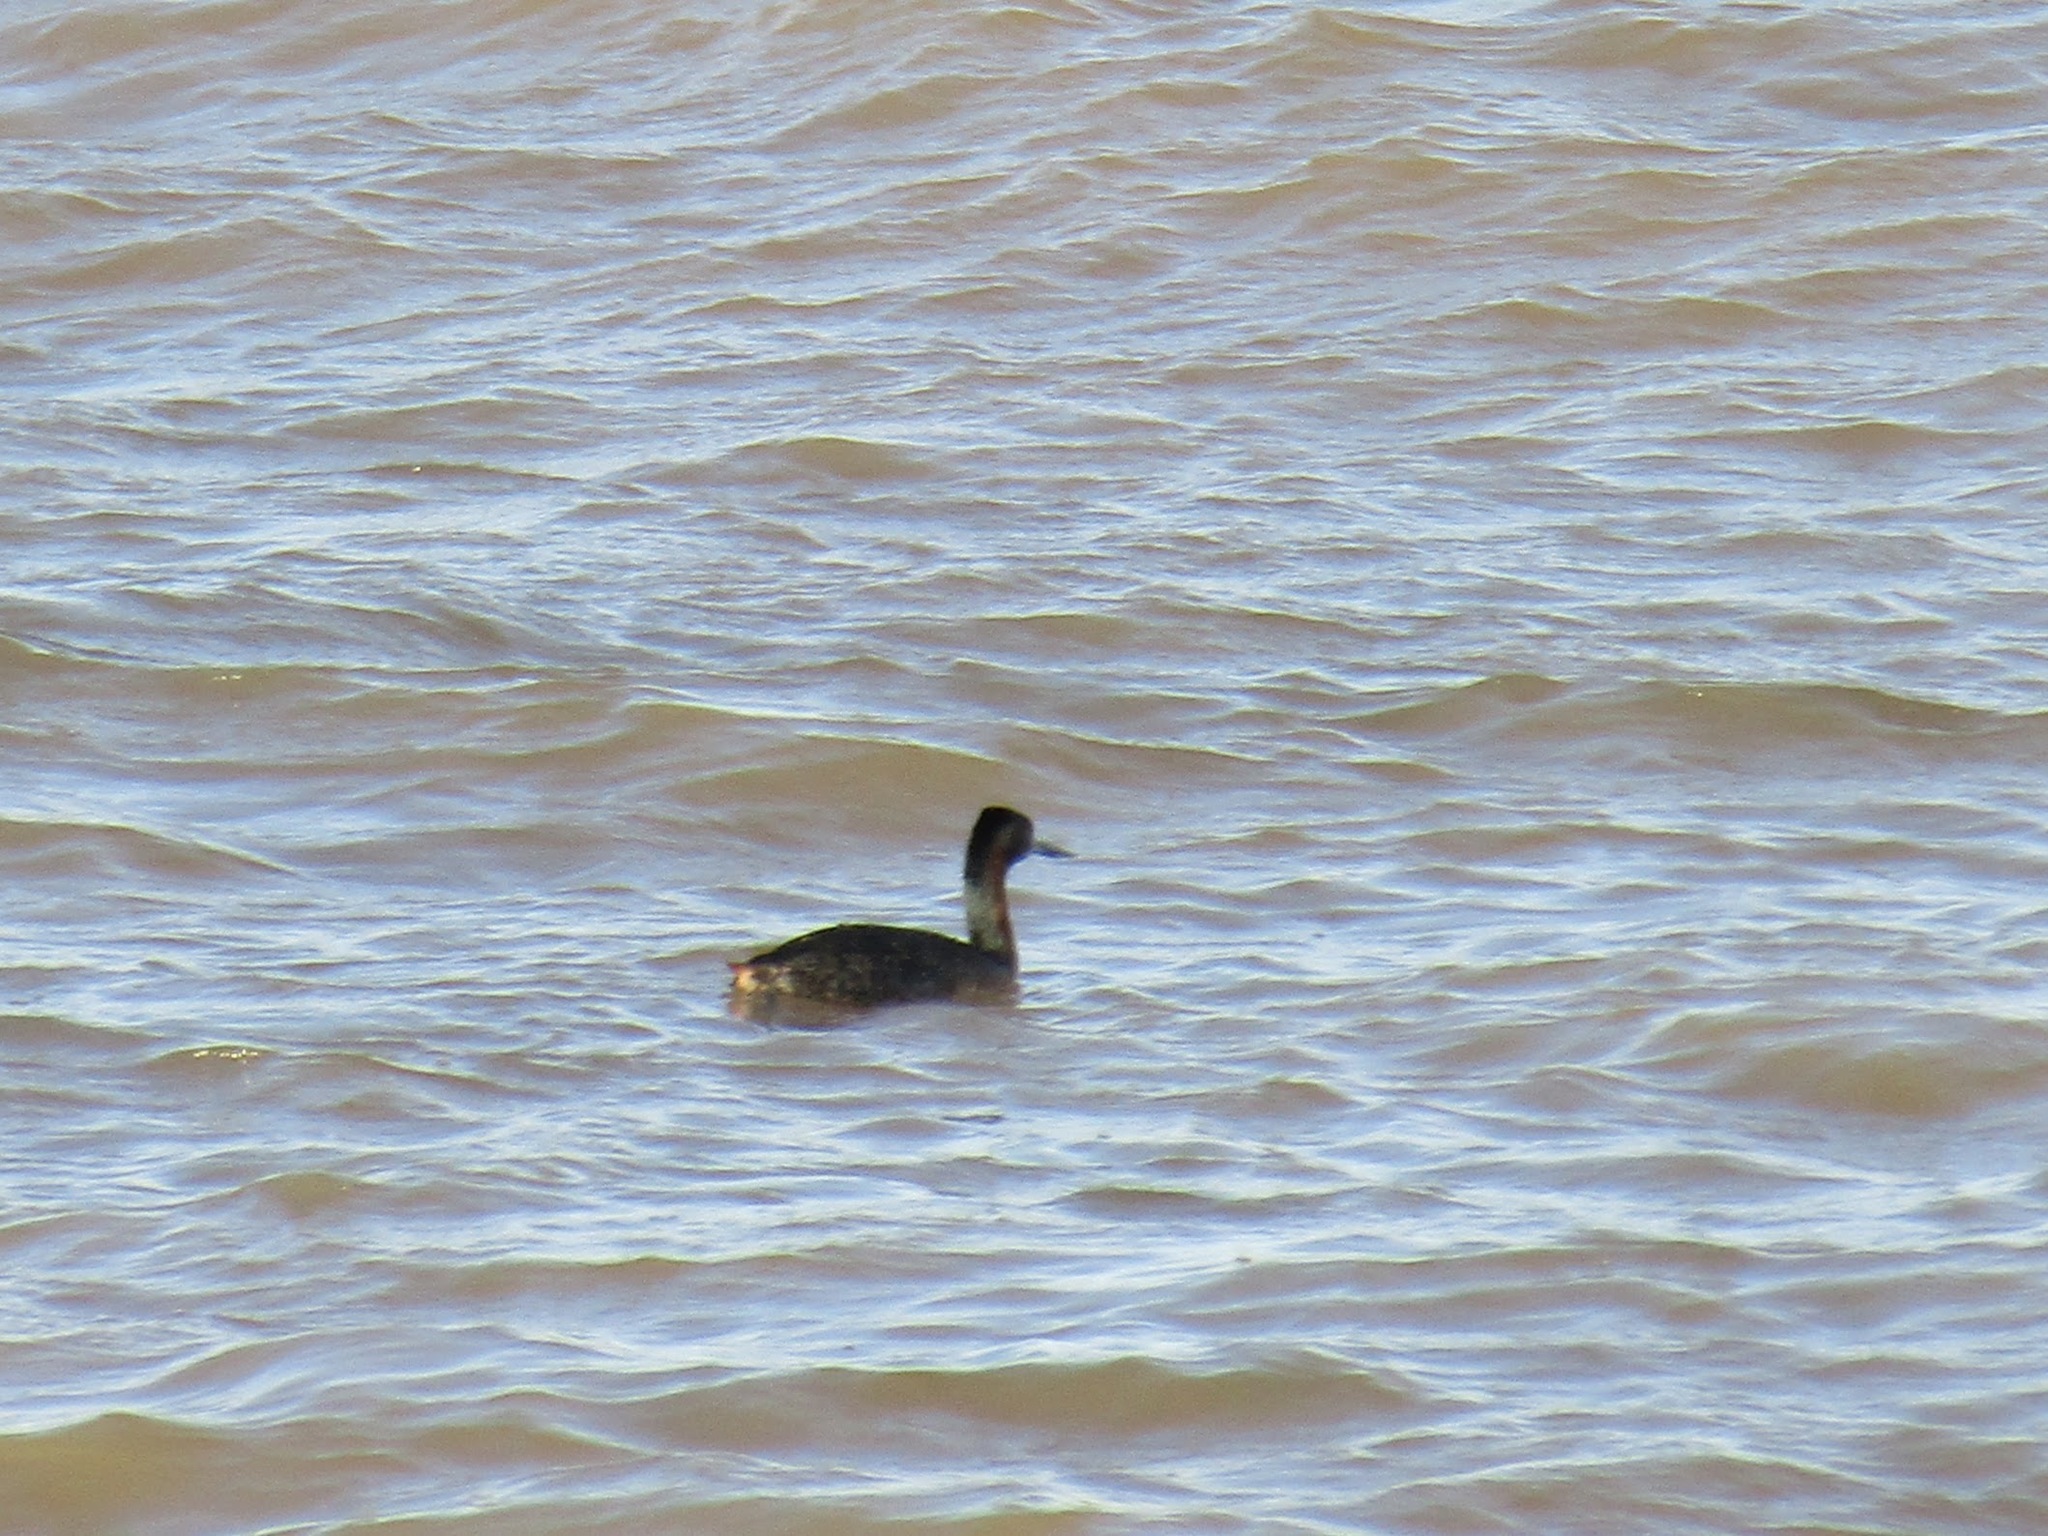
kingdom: Animalia
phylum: Chordata
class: Aves
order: Podicipediformes
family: Podicipedidae
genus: Podiceps
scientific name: Podiceps major
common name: Great grebe
